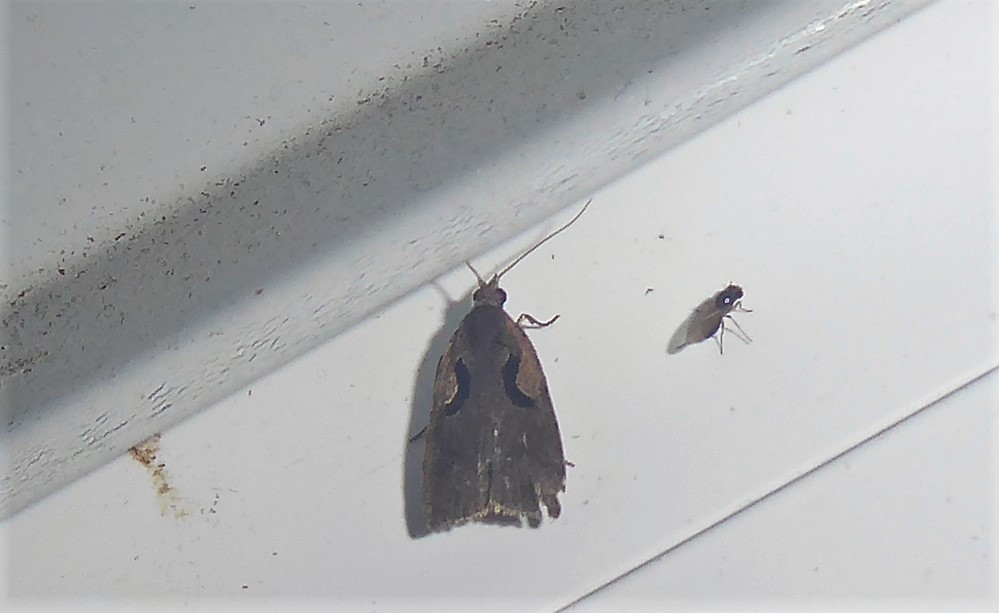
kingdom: Animalia
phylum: Arthropoda
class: Insecta
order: Lepidoptera
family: Tortricidae
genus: Cnephasia
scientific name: Cnephasia jactatana
